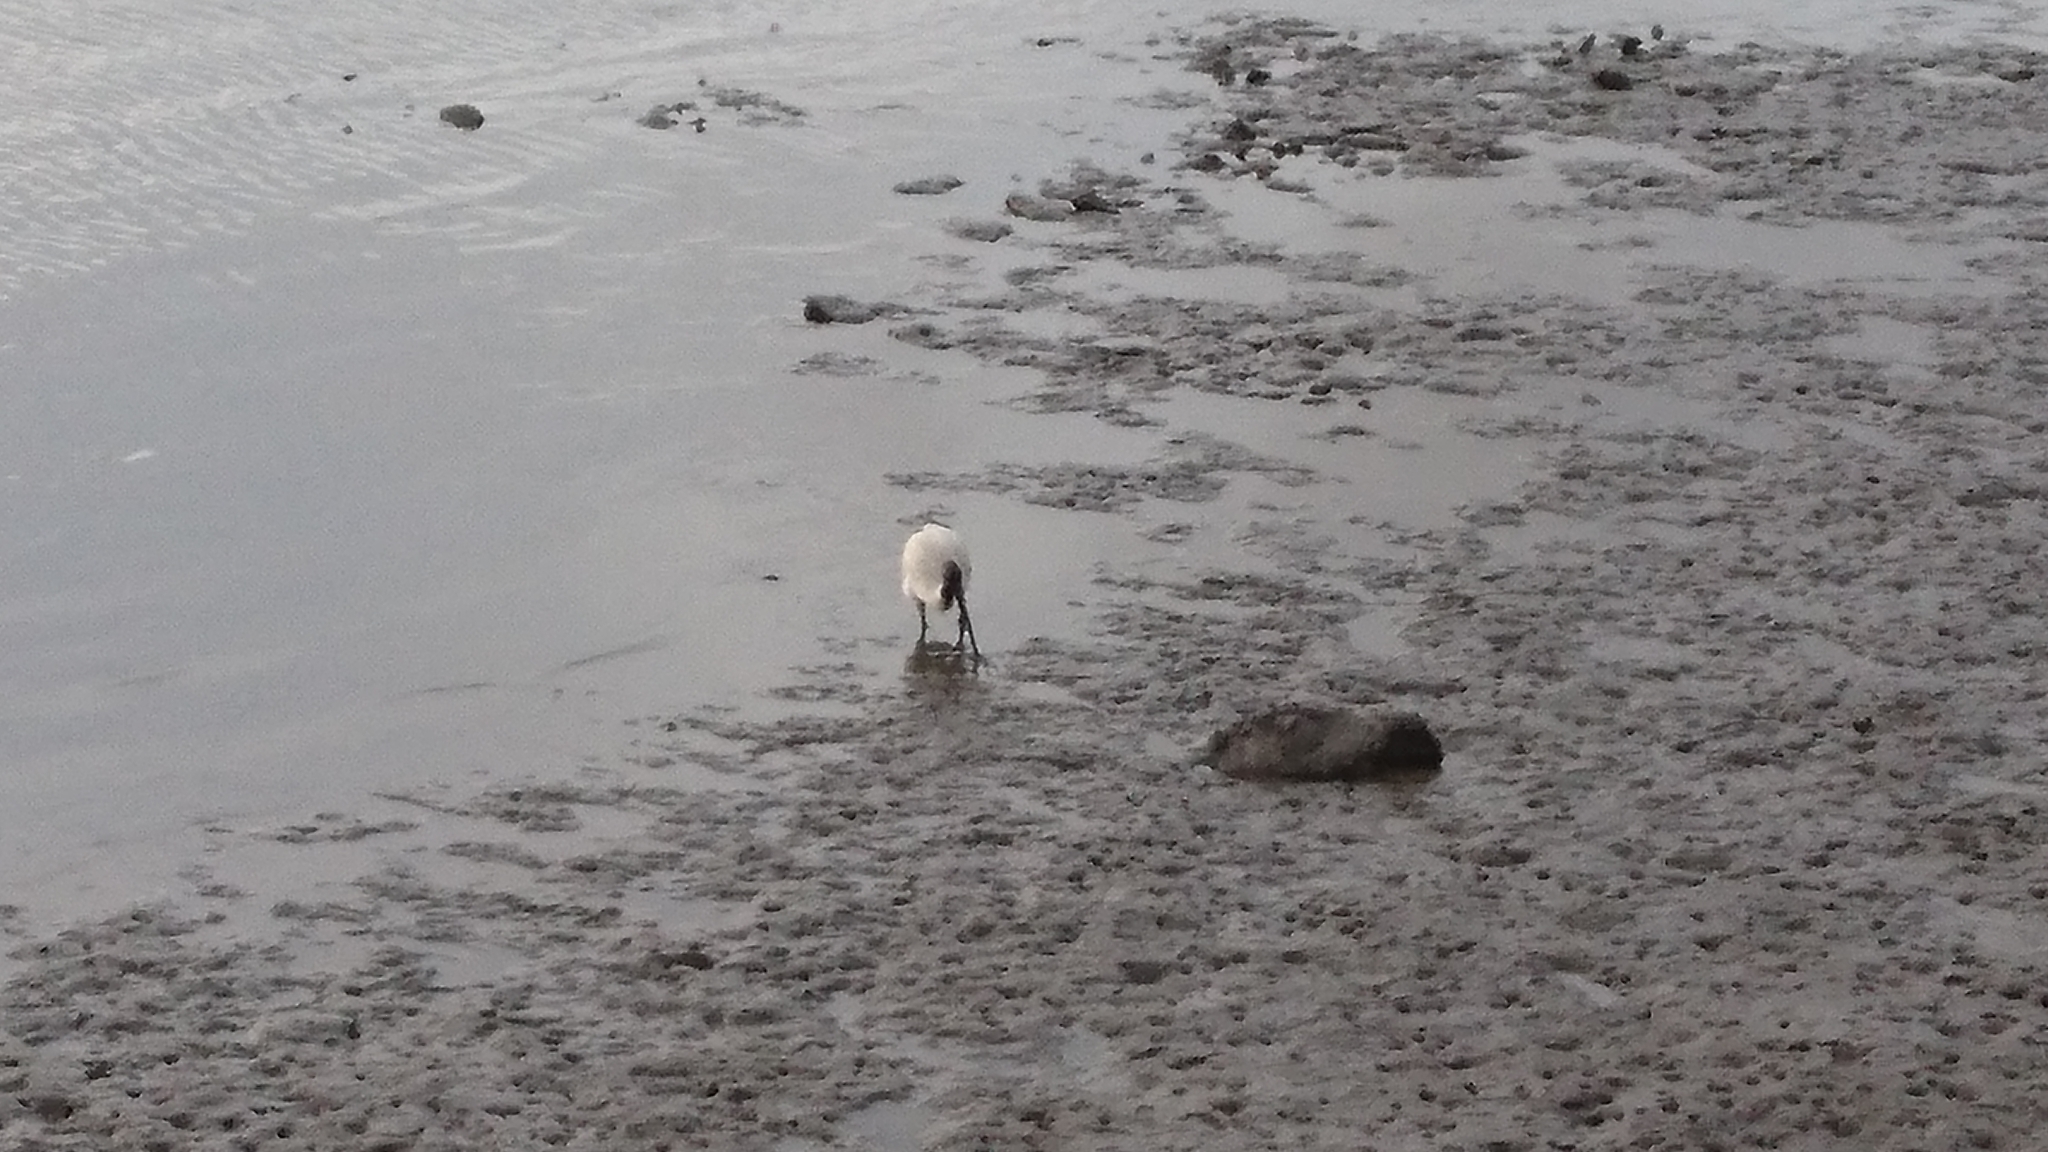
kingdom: Animalia
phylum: Chordata
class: Aves
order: Pelecaniformes
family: Threskiornithidae
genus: Threskiornis
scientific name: Threskiornis molucca
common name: Australian white ibis
